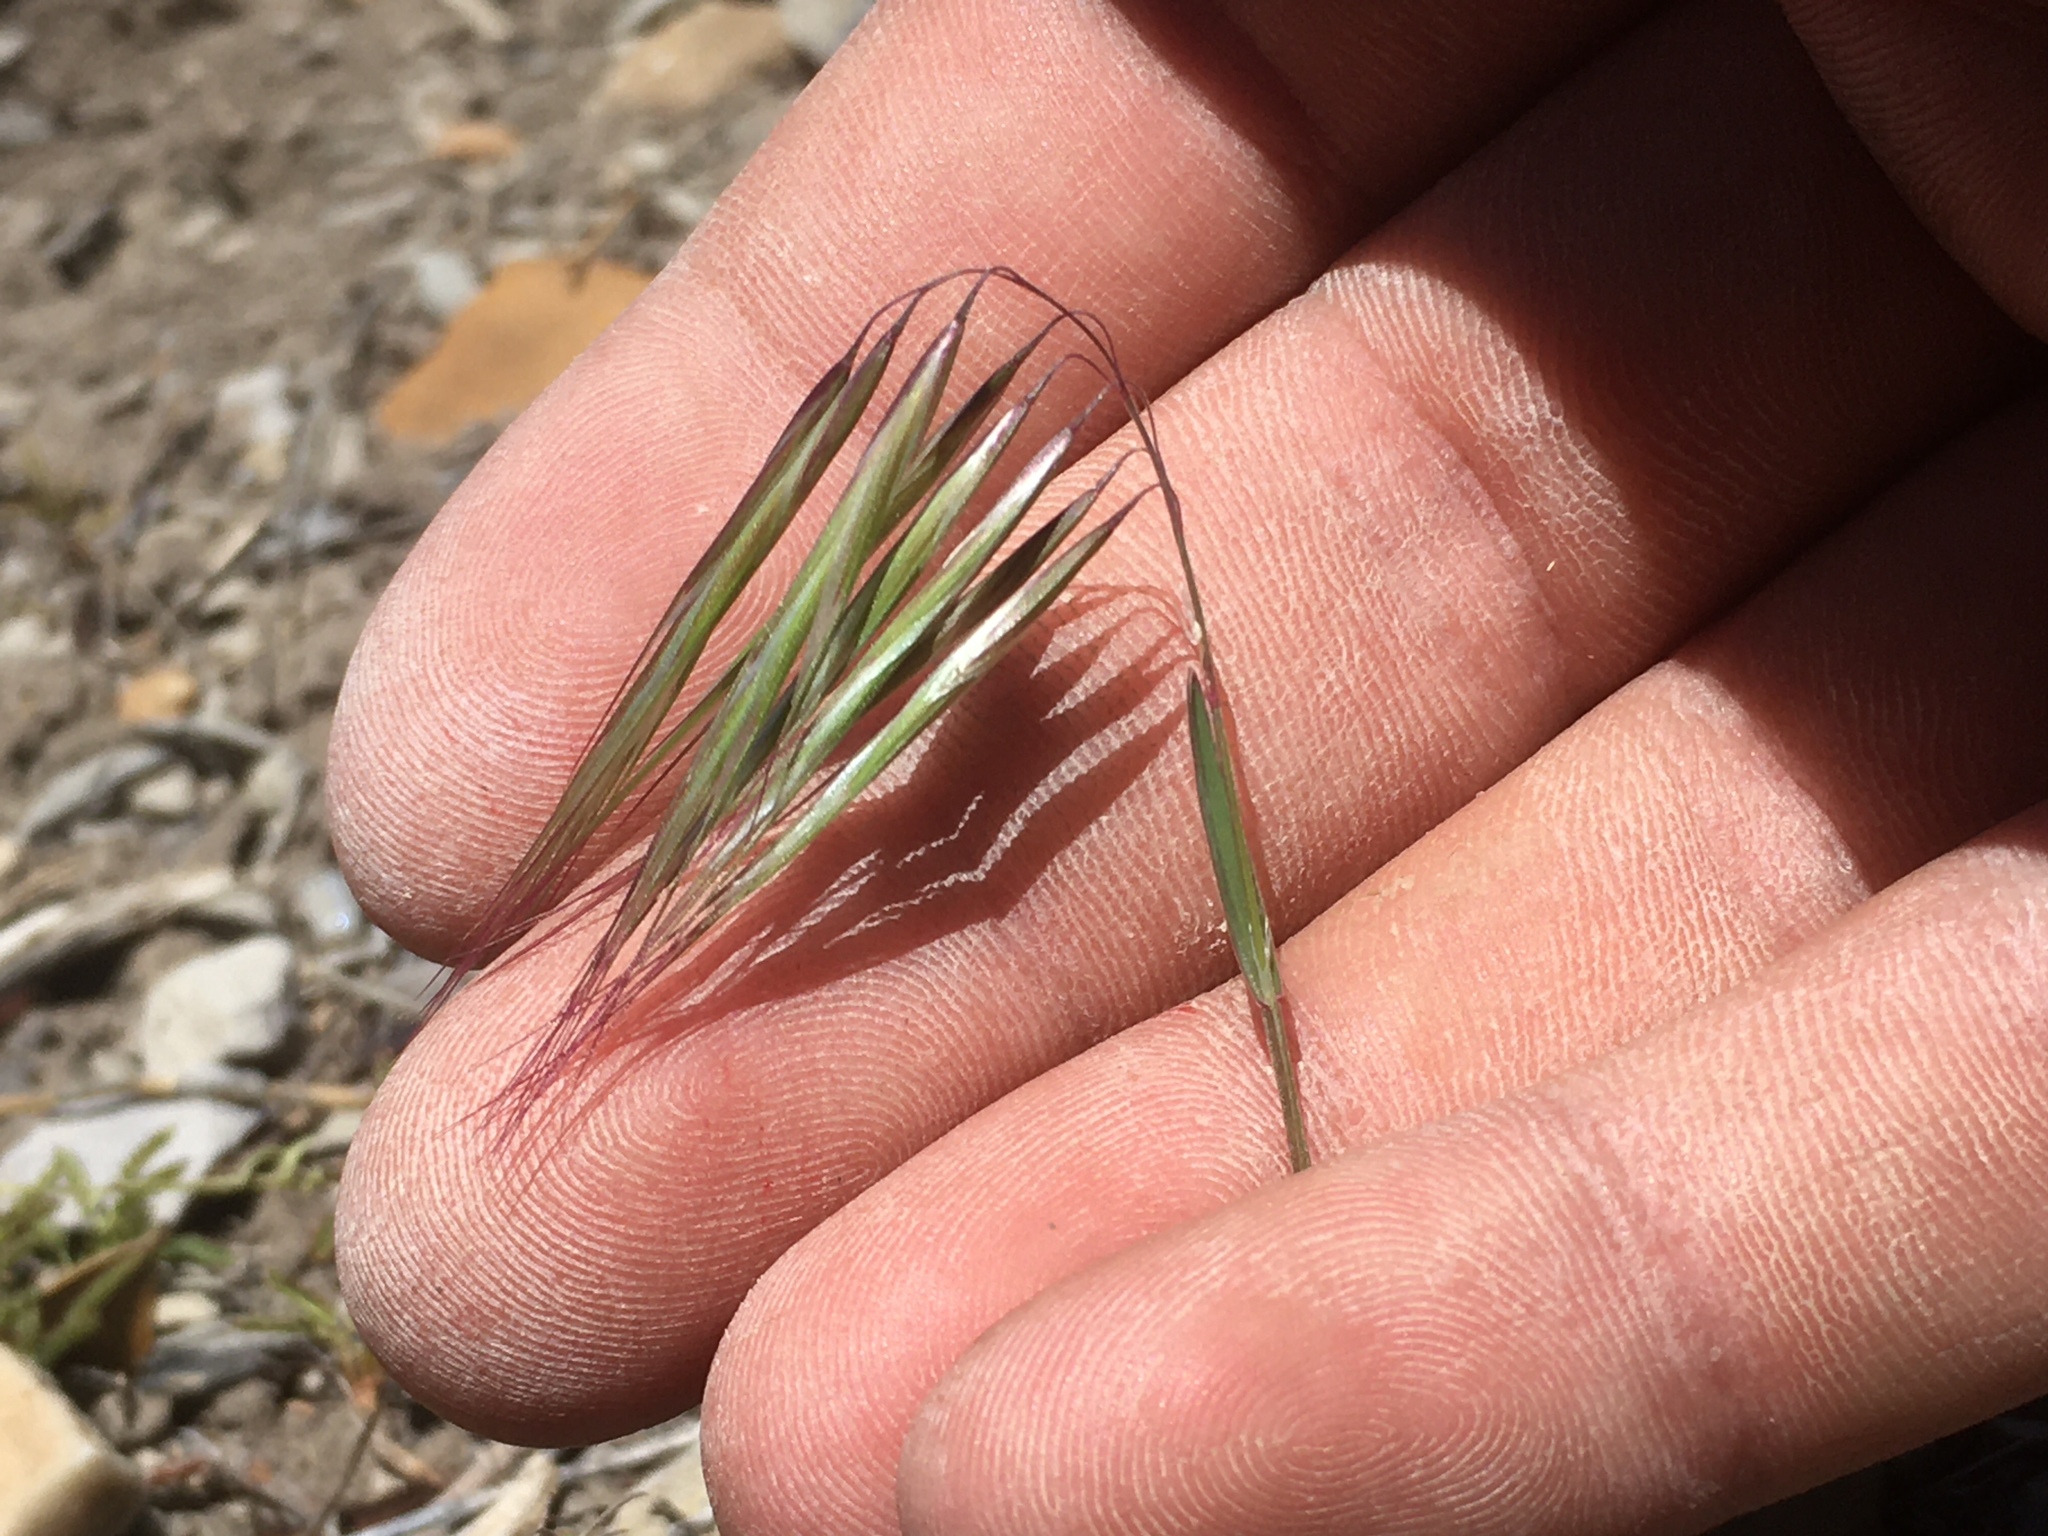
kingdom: Plantae
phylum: Tracheophyta
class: Liliopsida
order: Poales
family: Poaceae
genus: Bromus
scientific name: Bromus tectorum
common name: Cheatgrass
